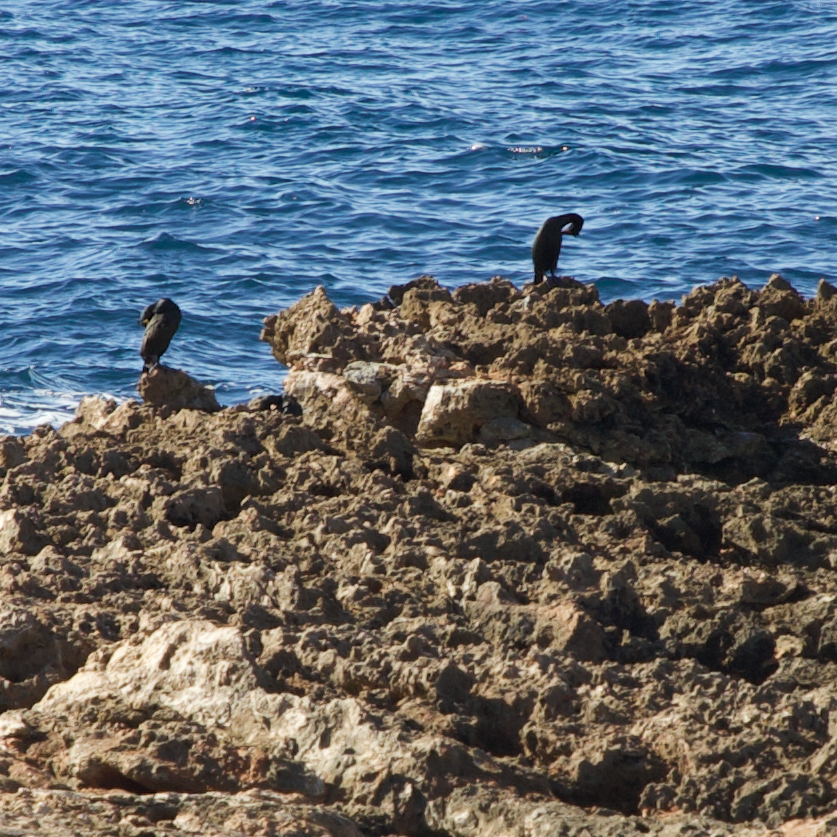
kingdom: Animalia
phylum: Chordata
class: Aves
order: Suliformes
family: Phalacrocoracidae
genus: Phalacrocorax
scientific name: Phalacrocorax aristotelis
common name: European shag
